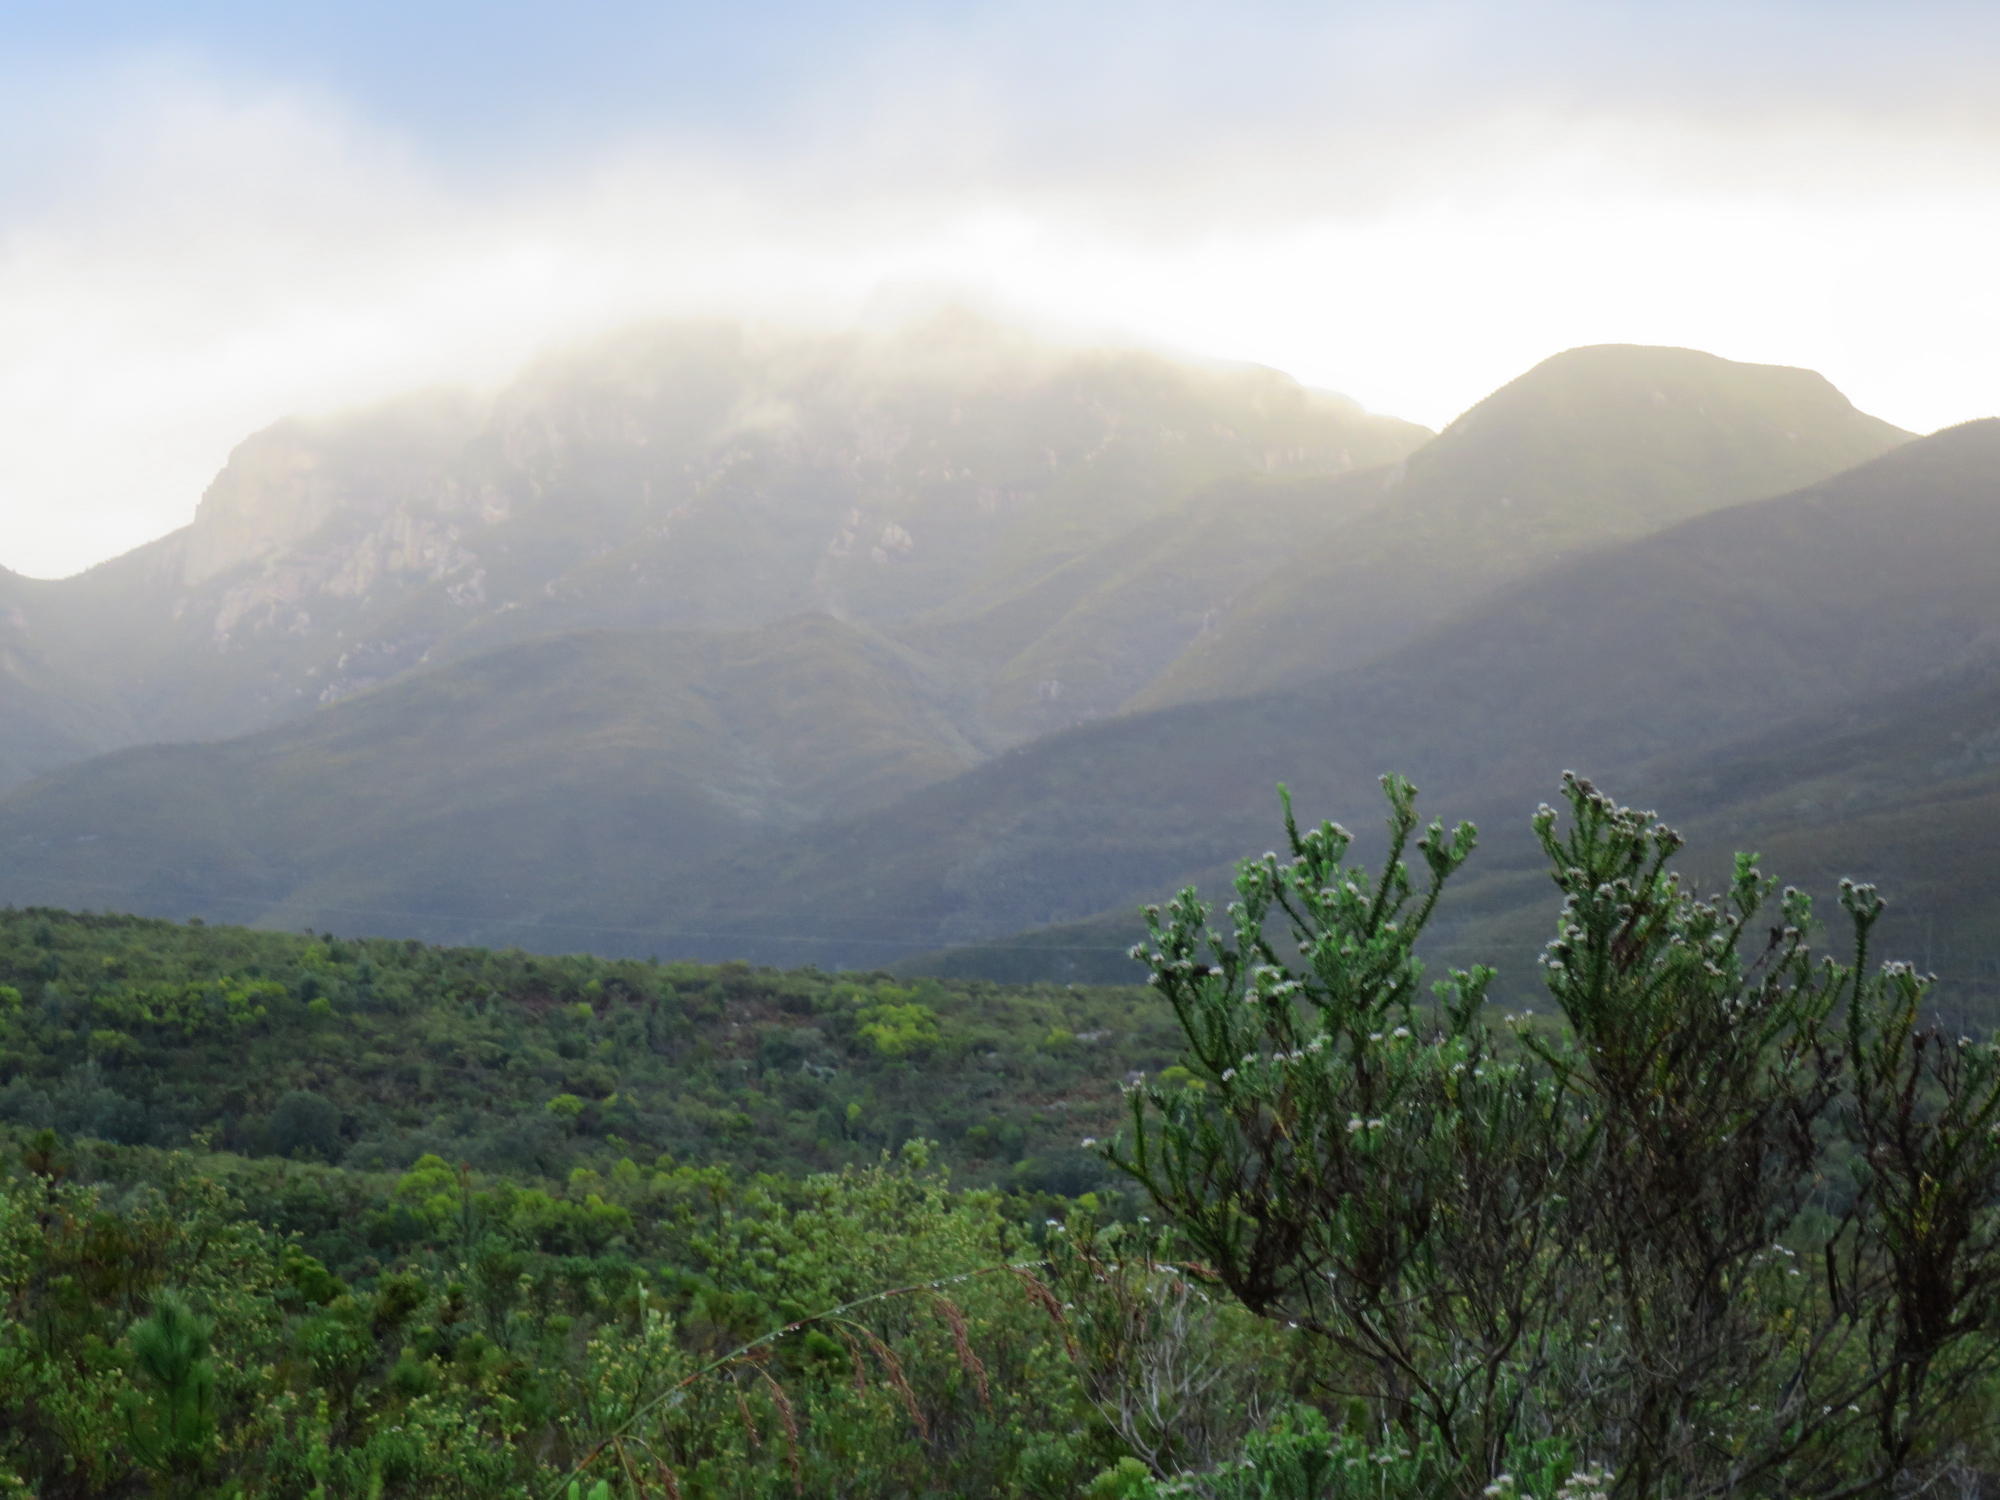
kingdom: Plantae
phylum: Tracheophyta
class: Magnoliopsida
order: Asterales
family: Asteraceae
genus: Metalasia
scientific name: Metalasia pungens
